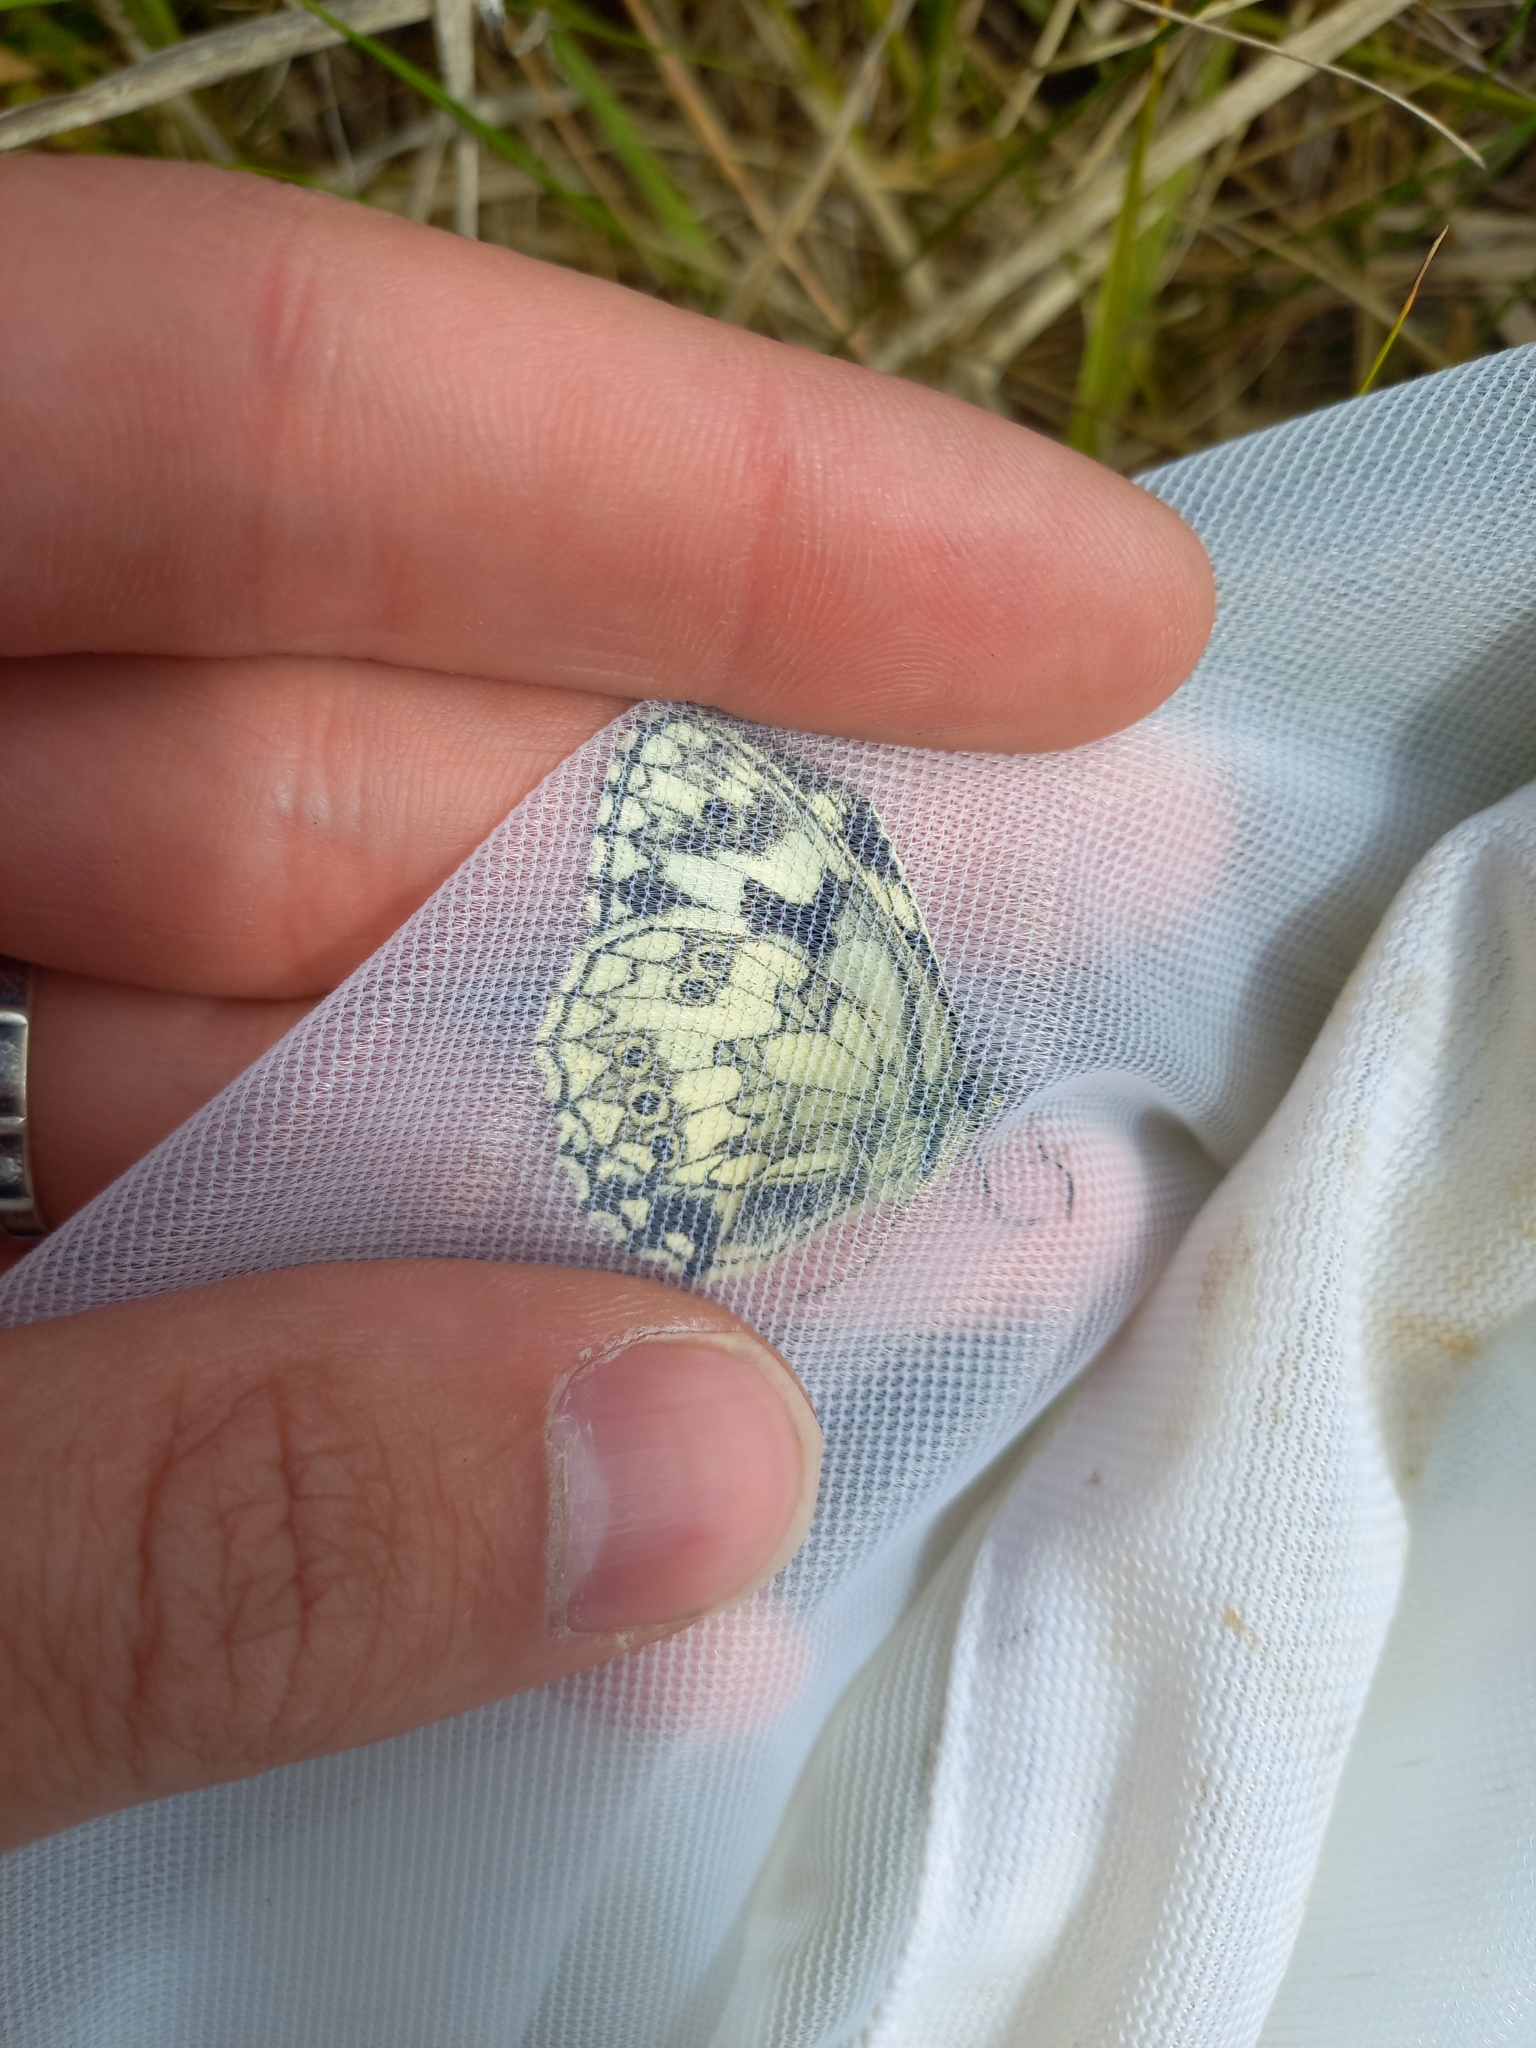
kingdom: Animalia
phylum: Arthropoda
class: Insecta
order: Lepidoptera
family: Nymphalidae
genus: Melanargia
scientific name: Melanargia galathea
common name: Marbled white
